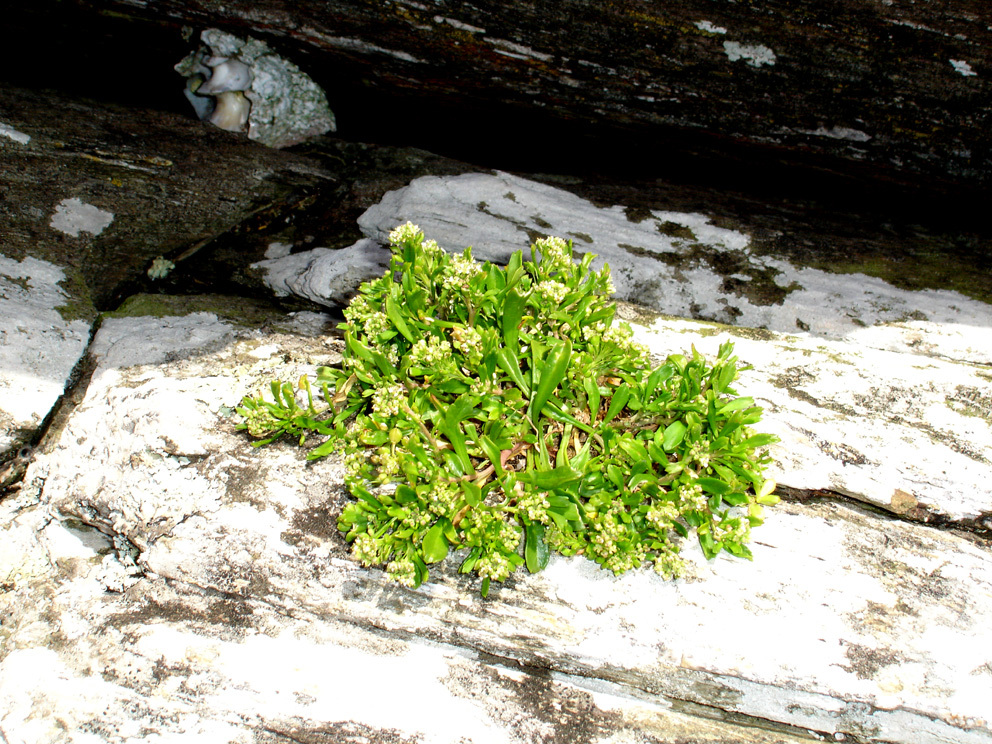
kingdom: Plantae
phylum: Tracheophyta
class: Magnoliopsida
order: Brassicales
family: Brassicaceae
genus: Lepidium
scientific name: Lepidium oligodontum
